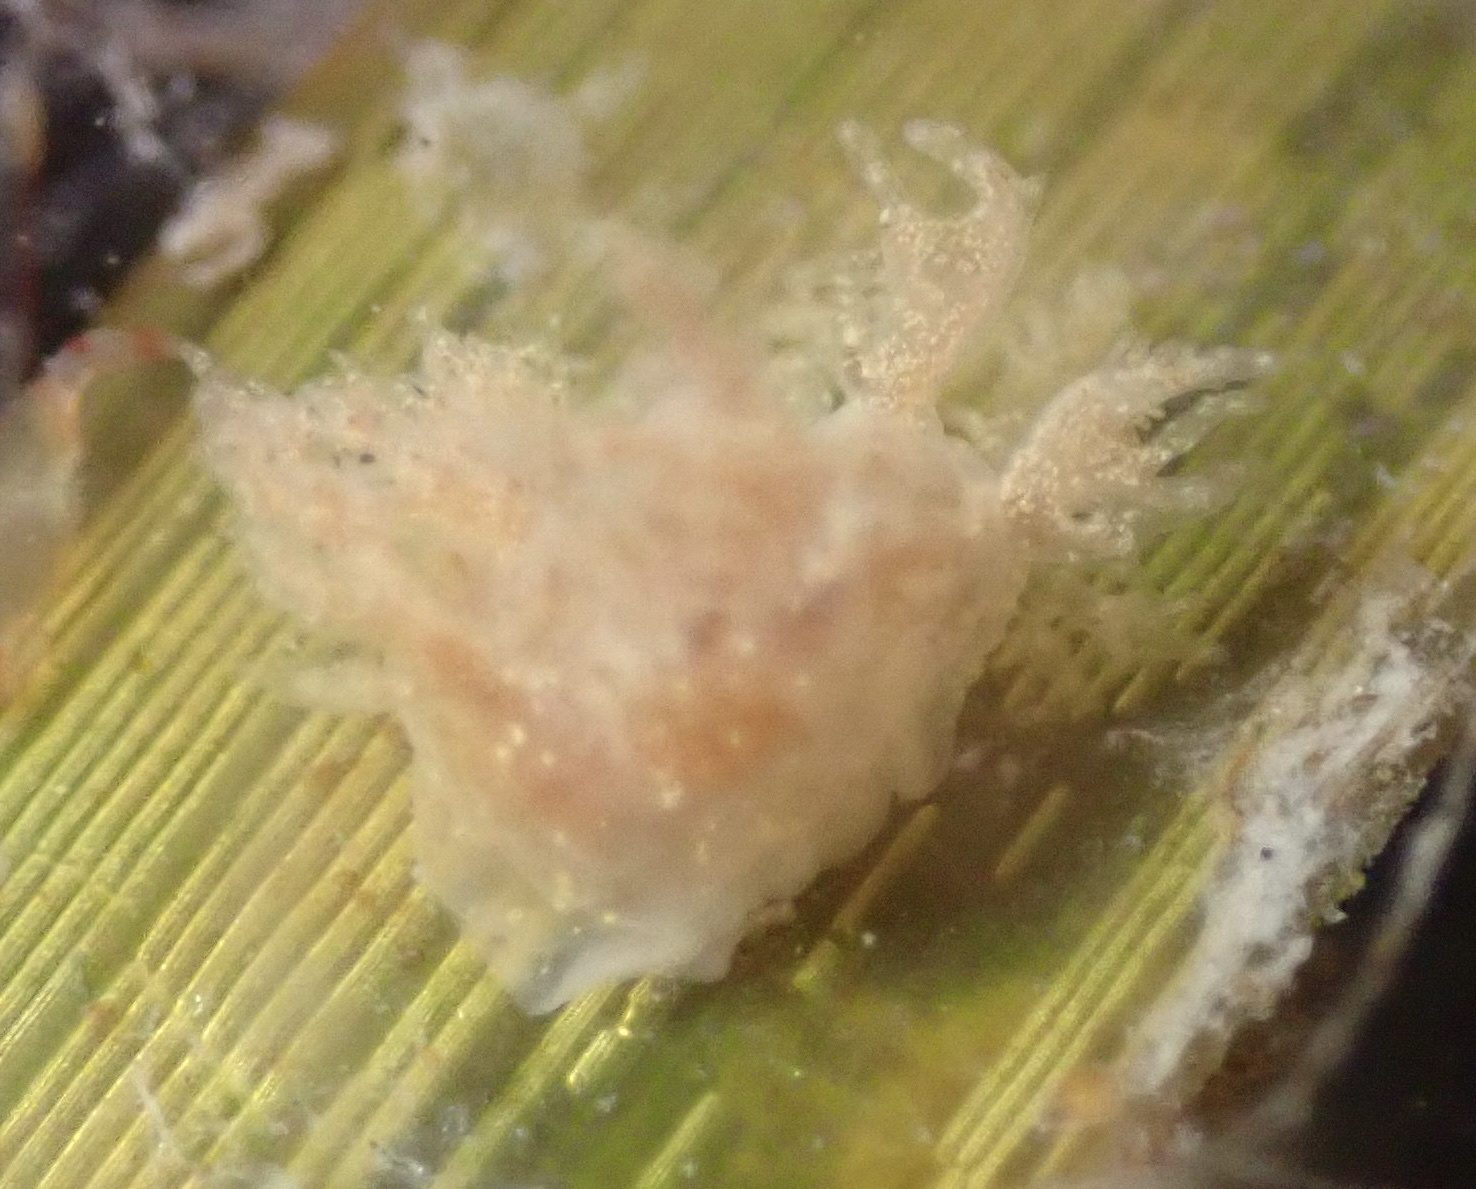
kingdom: Animalia
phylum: Mollusca
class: Gastropoda
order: Nudibranchia
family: Dendronotidae
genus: Dendronotus
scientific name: Dendronotus venustus
